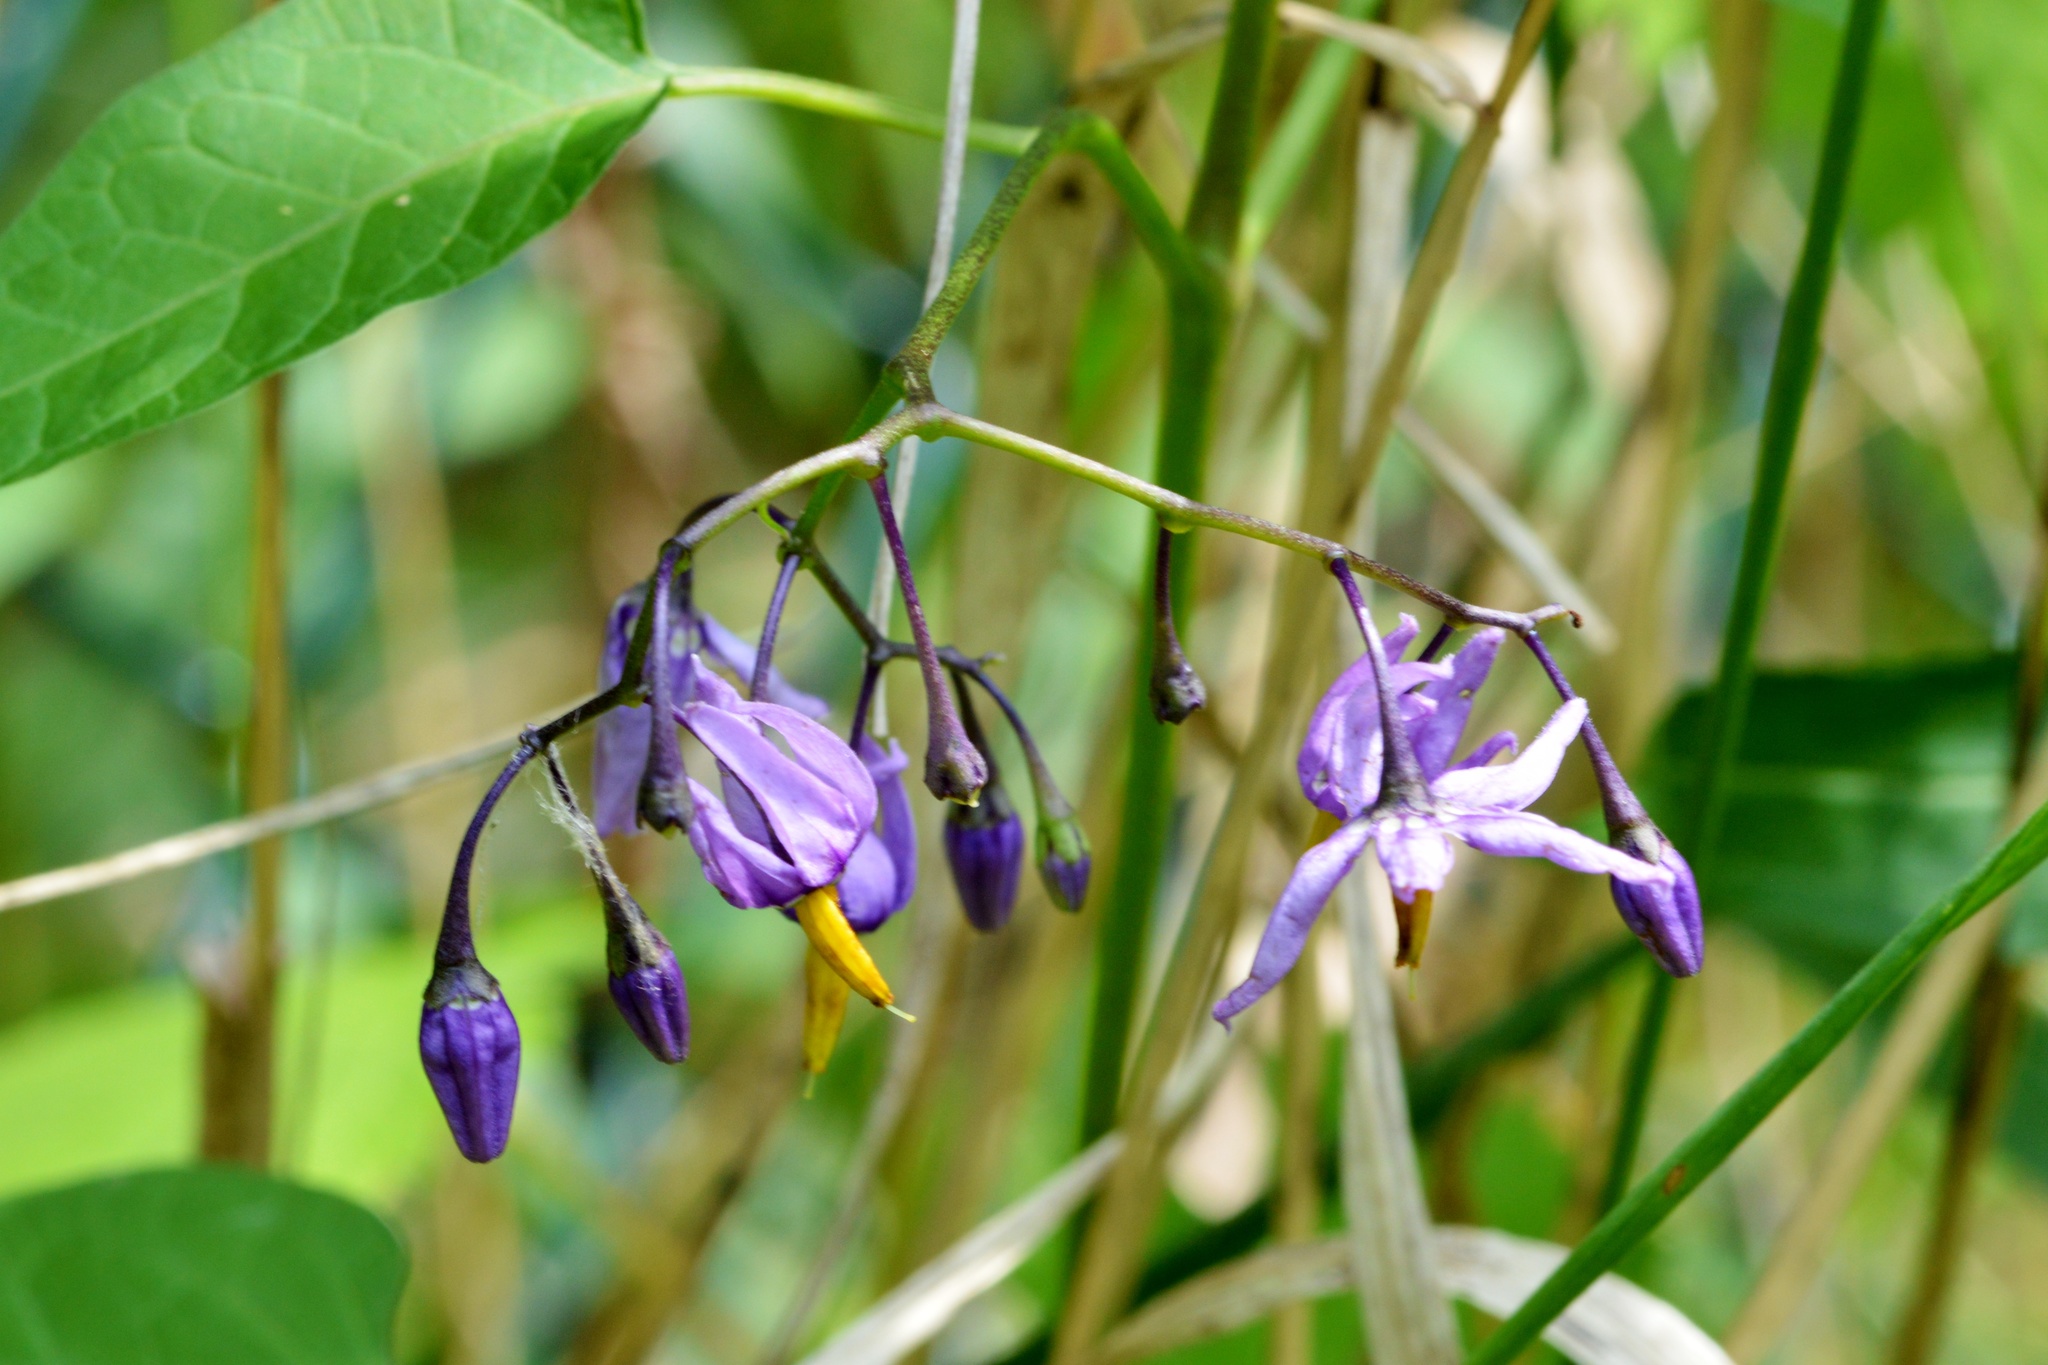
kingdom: Plantae
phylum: Tracheophyta
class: Magnoliopsida
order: Solanales
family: Solanaceae
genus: Solanum
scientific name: Solanum dulcamara
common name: Climbing nightshade
